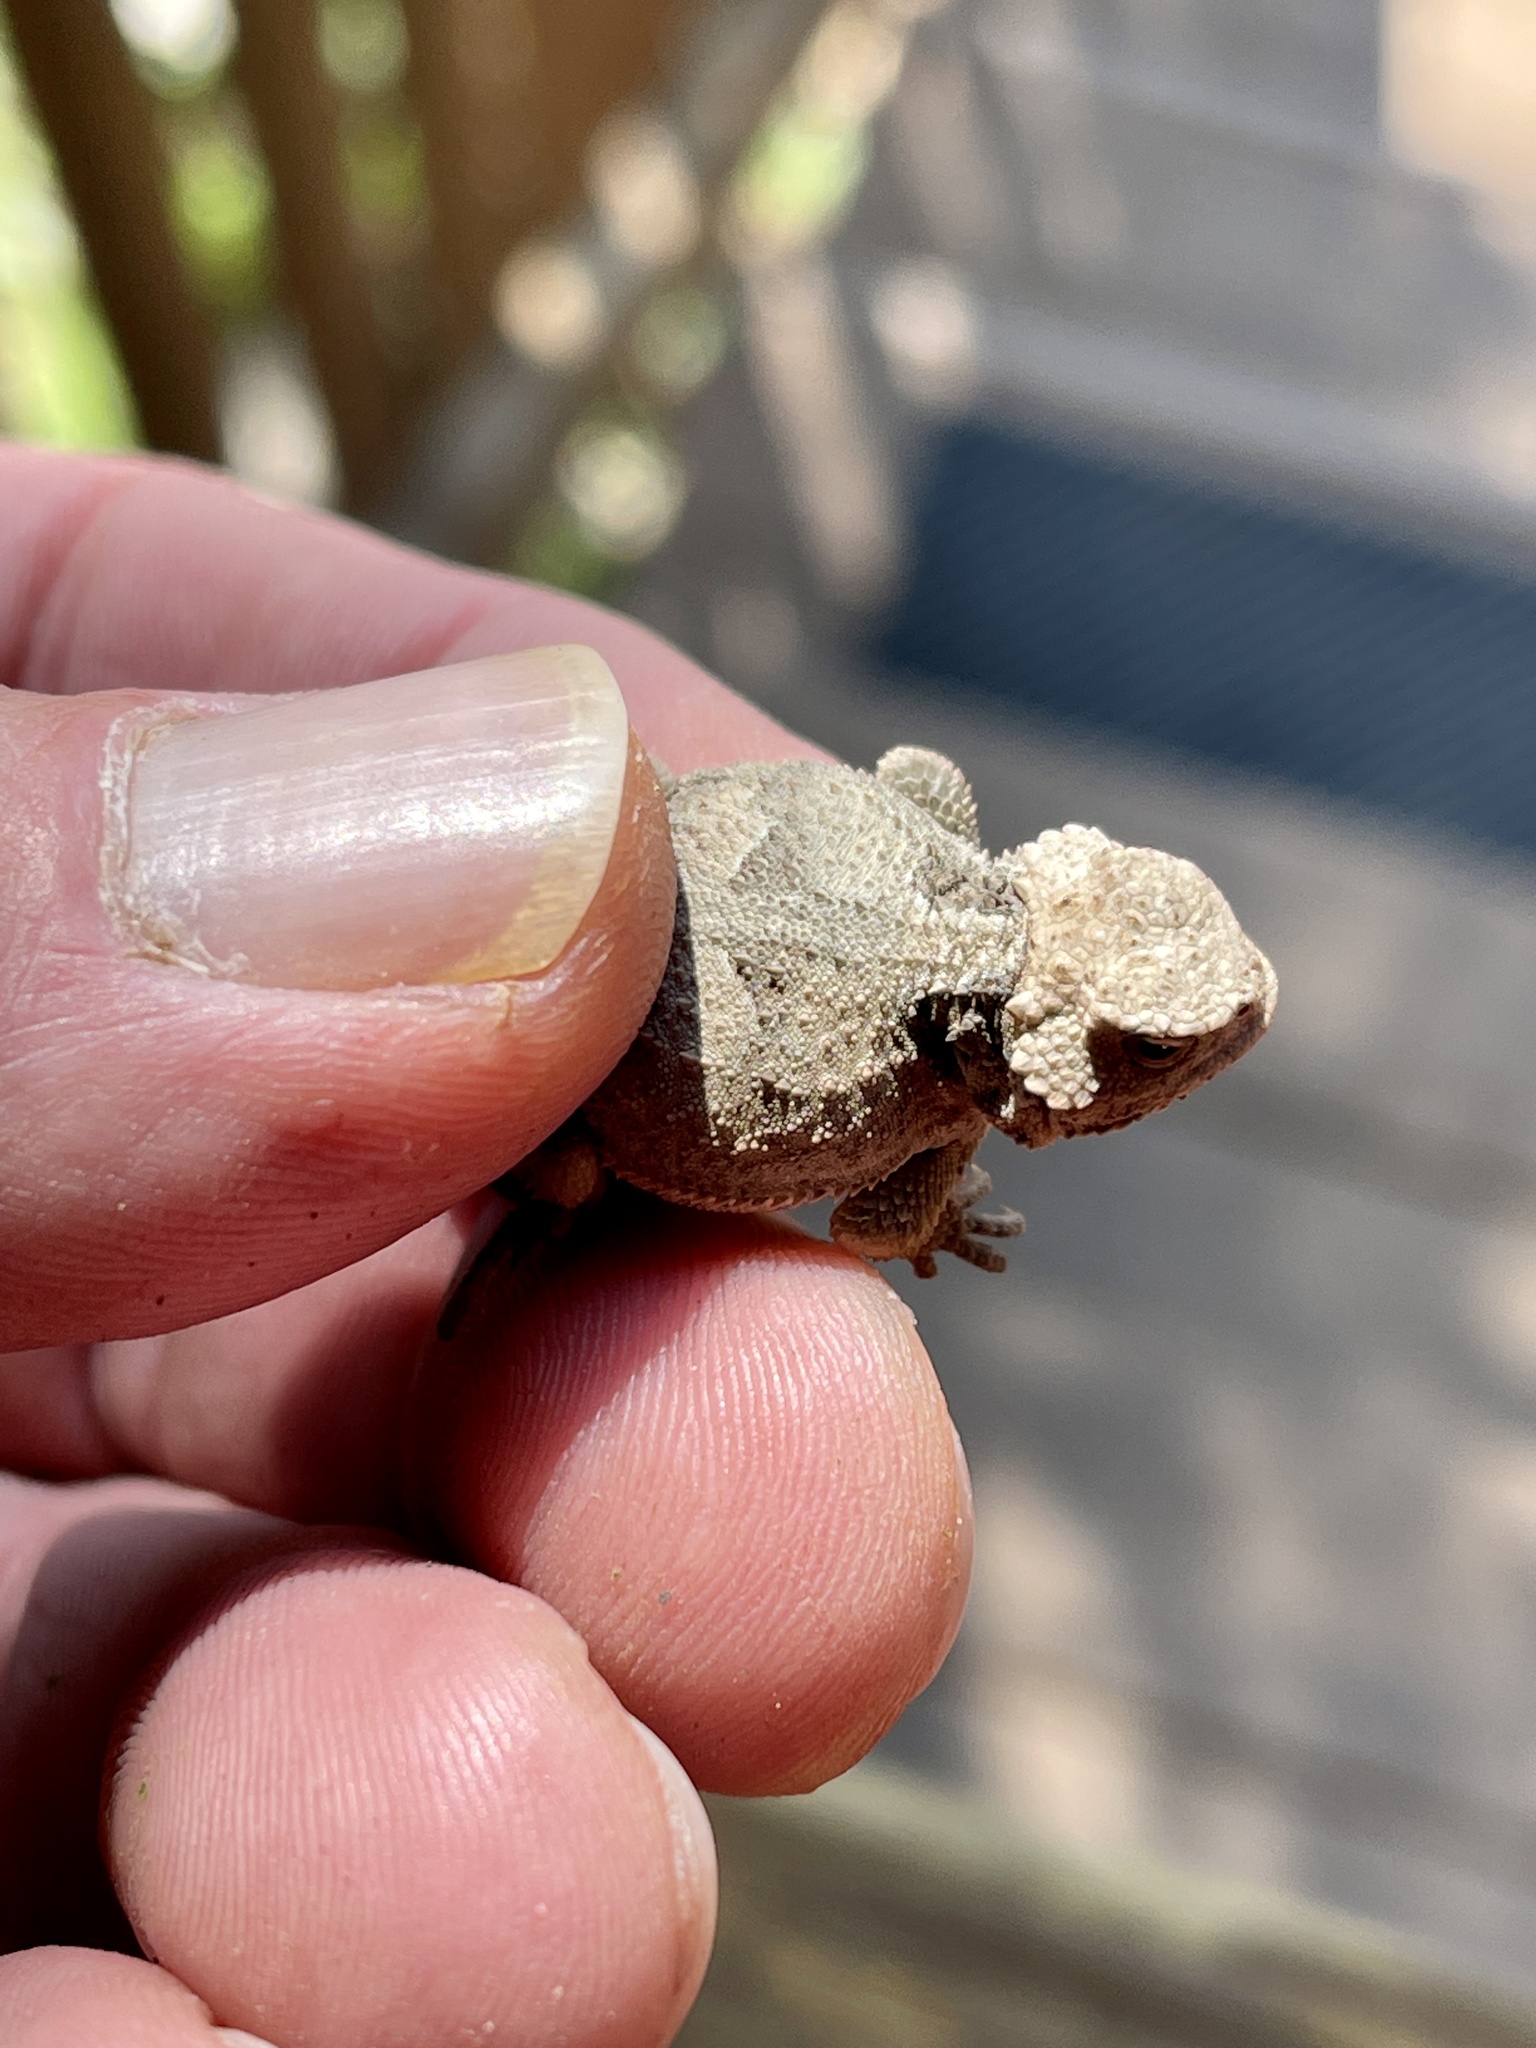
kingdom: Animalia
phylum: Chordata
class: Squamata
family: Phrynosomatidae
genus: Phrynosoma
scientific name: Phrynosoma hernandesi
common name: Greater short-horned lizard
